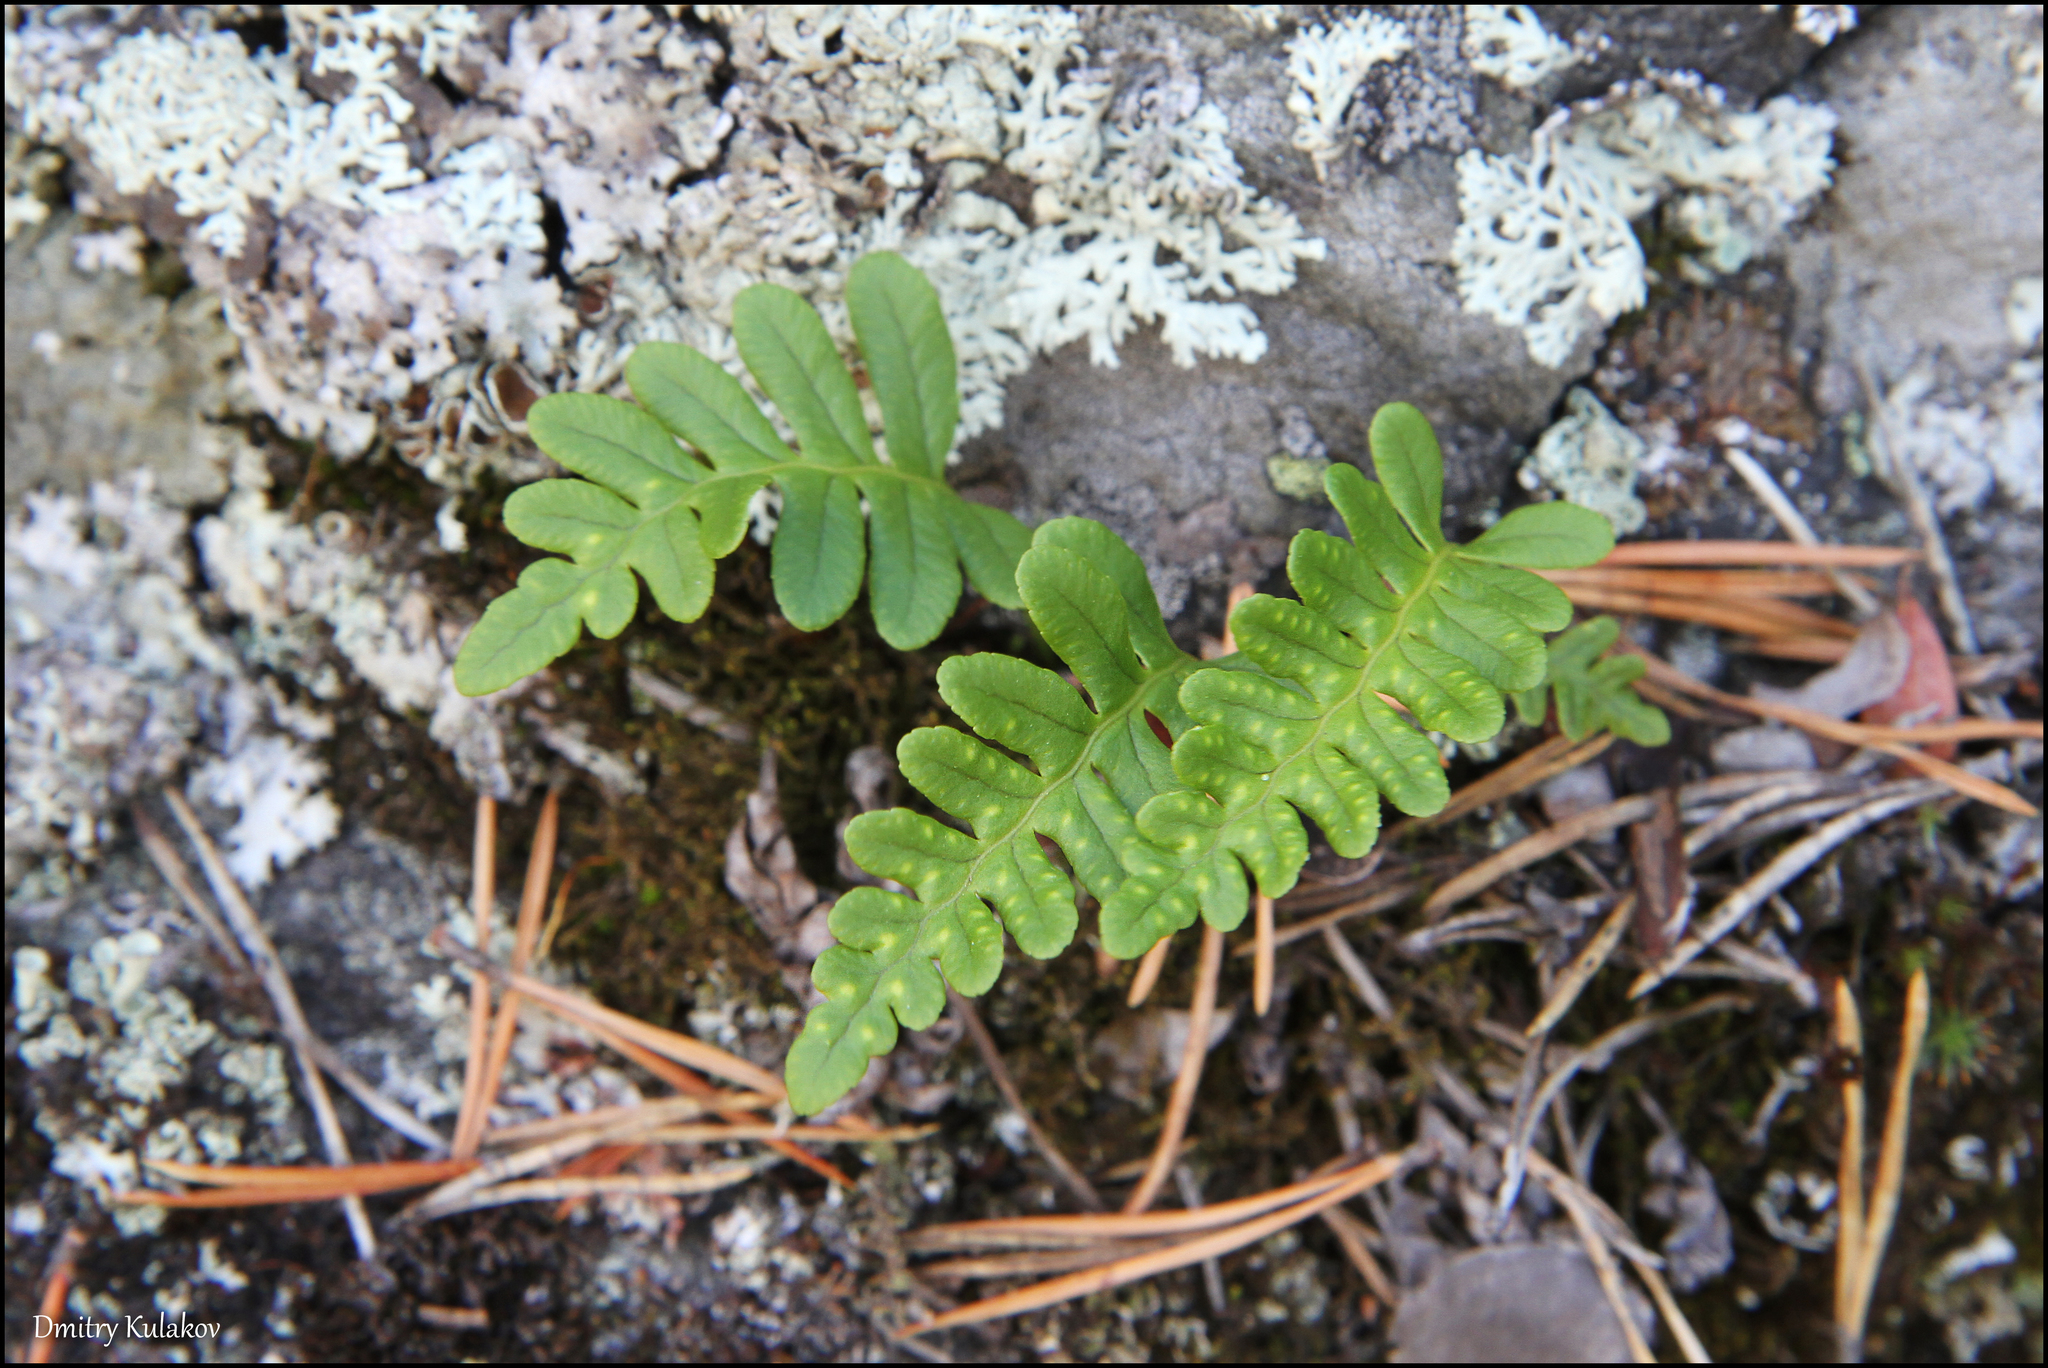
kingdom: Plantae
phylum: Tracheophyta
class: Polypodiopsida
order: Polypodiales
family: Polypodiaceae
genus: Polypodium
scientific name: Polypodium vulgare
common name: Common polypody
